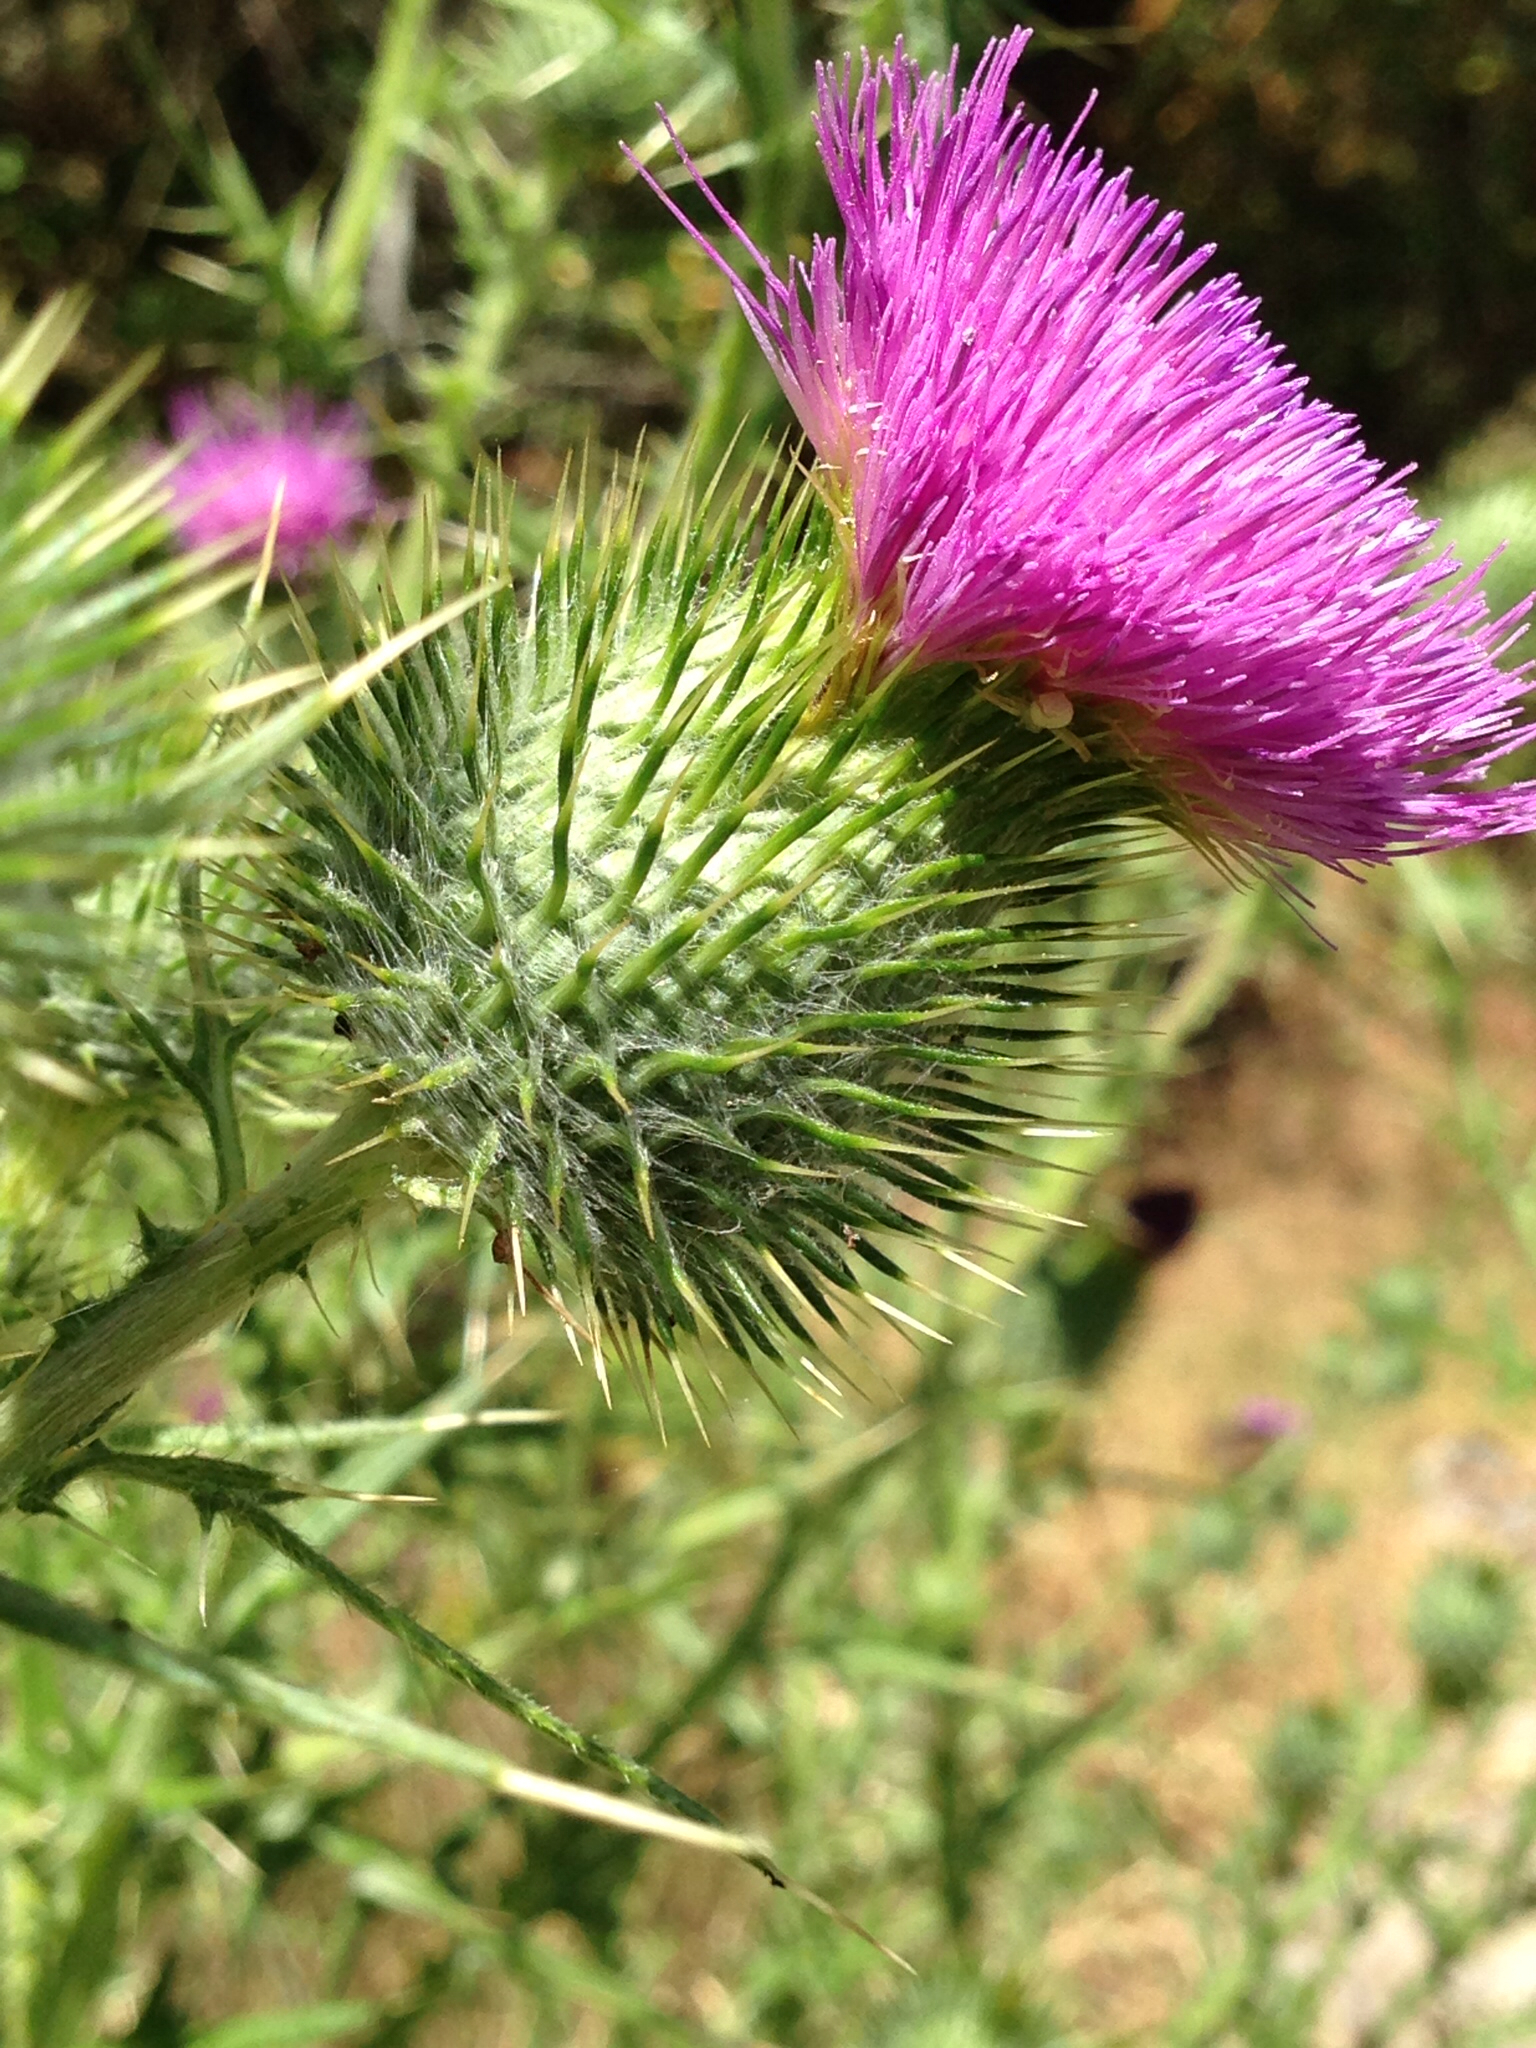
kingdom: Plantae
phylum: Tracheophyta
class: Magnoliopsida
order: Asterales
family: Asteraceae
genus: Cirsium
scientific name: Cirsium vulgare
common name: Bull thistle
